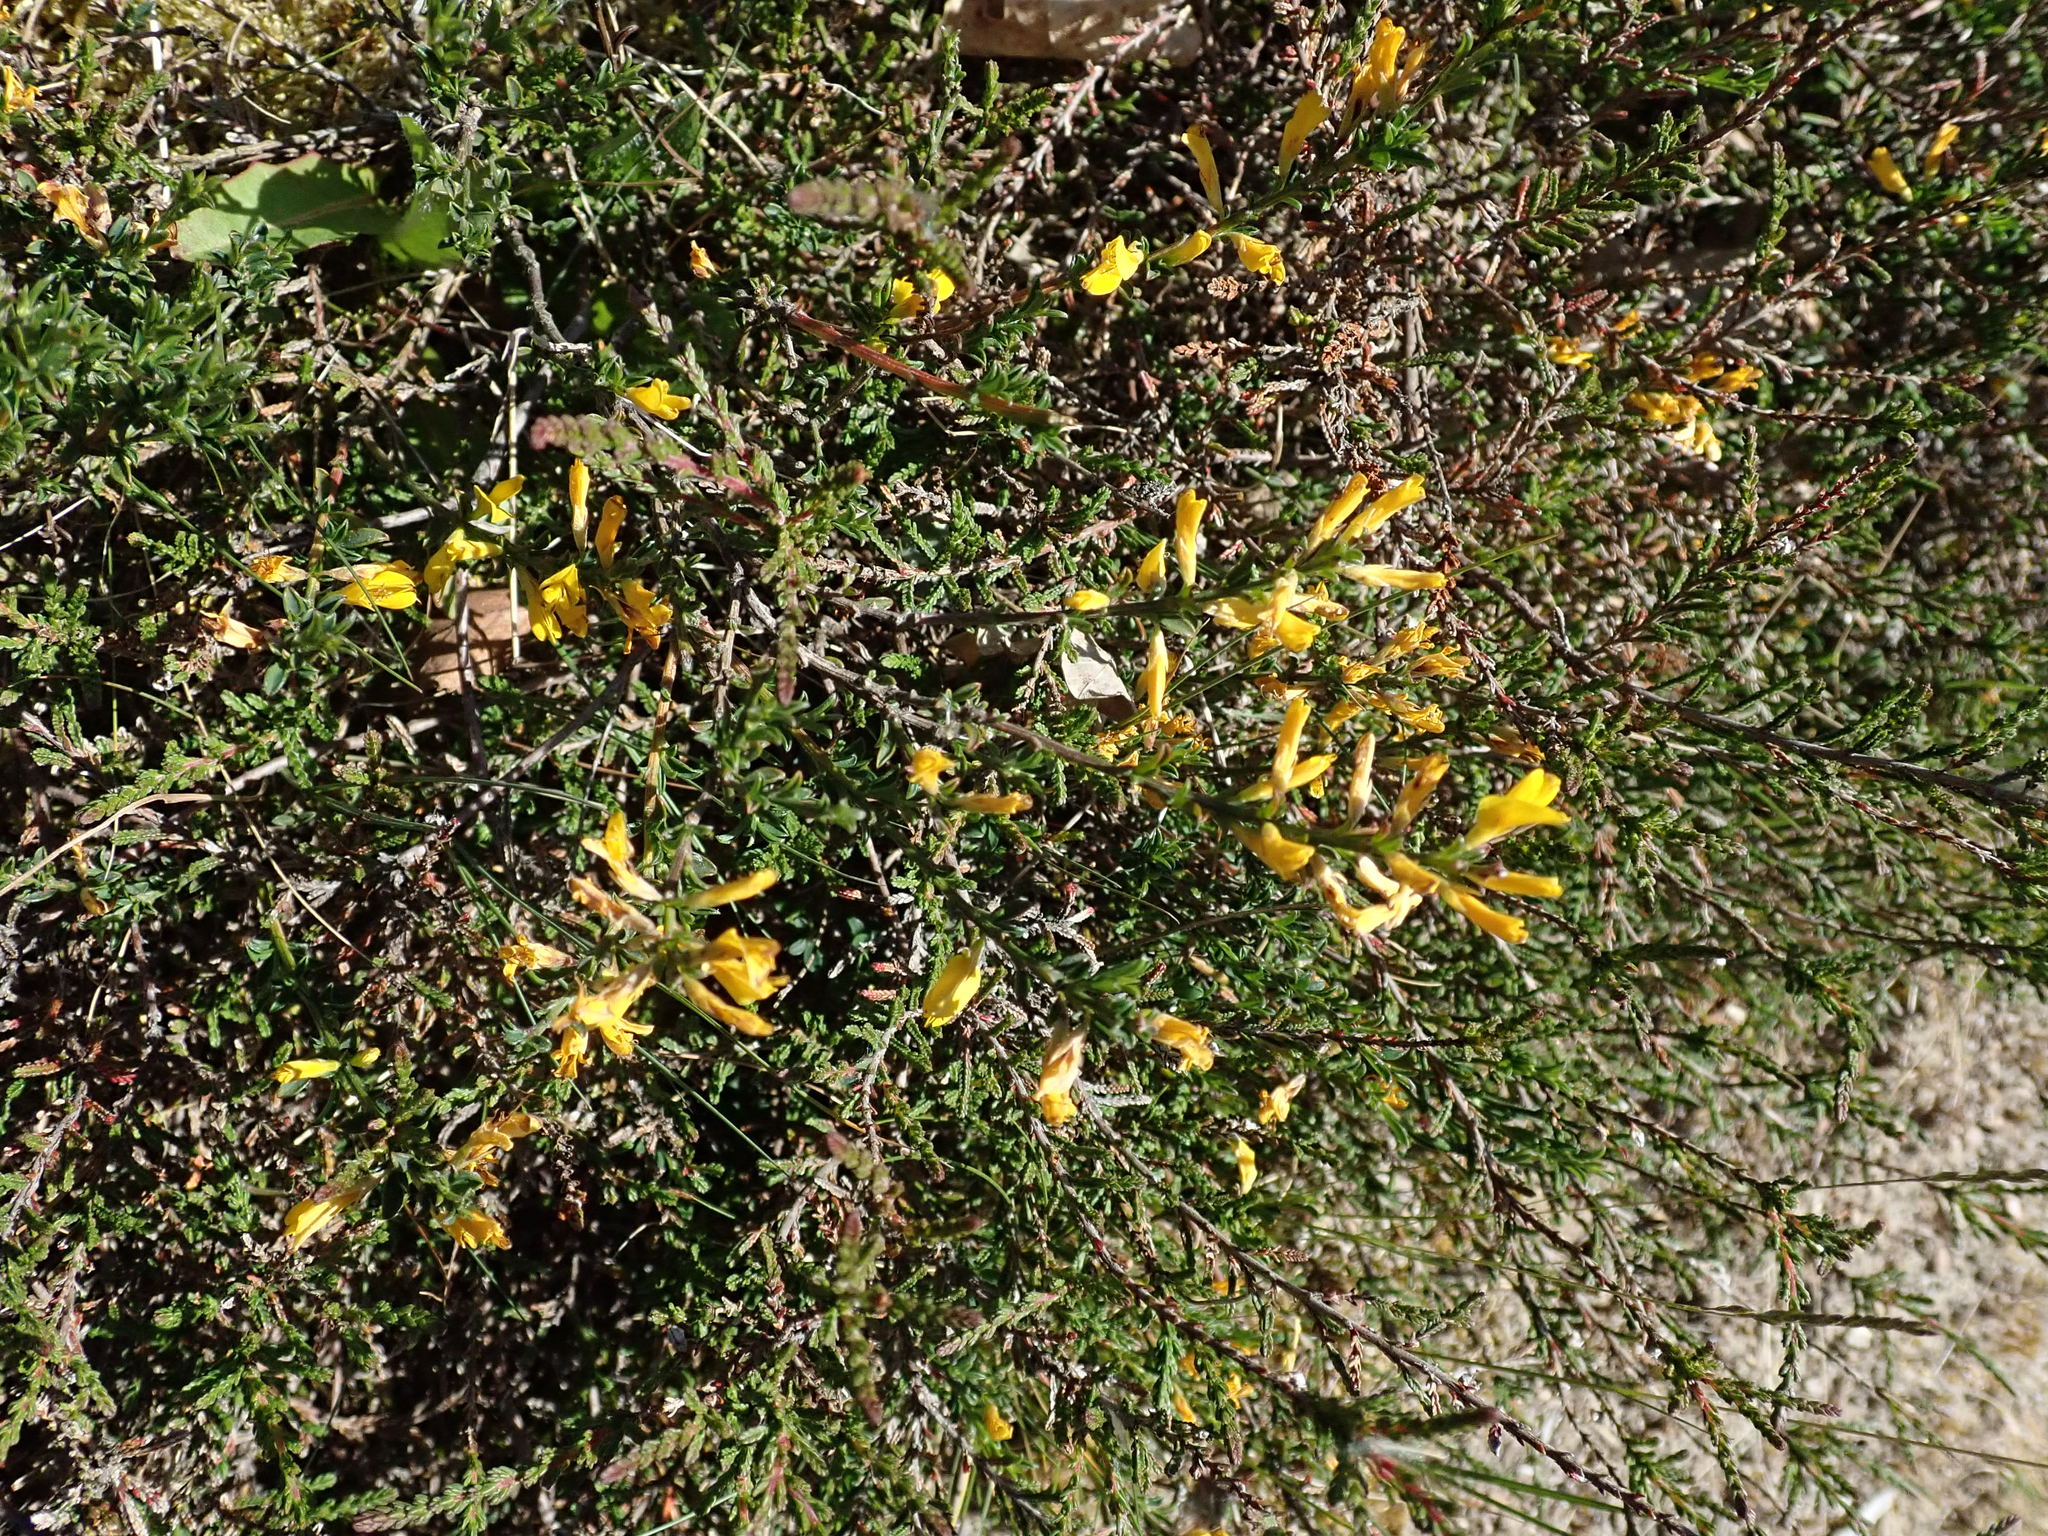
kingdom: Plantae
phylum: Tracheophyta
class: Magnoliopsida
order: Fabales
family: Fabaceae
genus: Genista
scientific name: Genista pilosa
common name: Hairy greenweed
